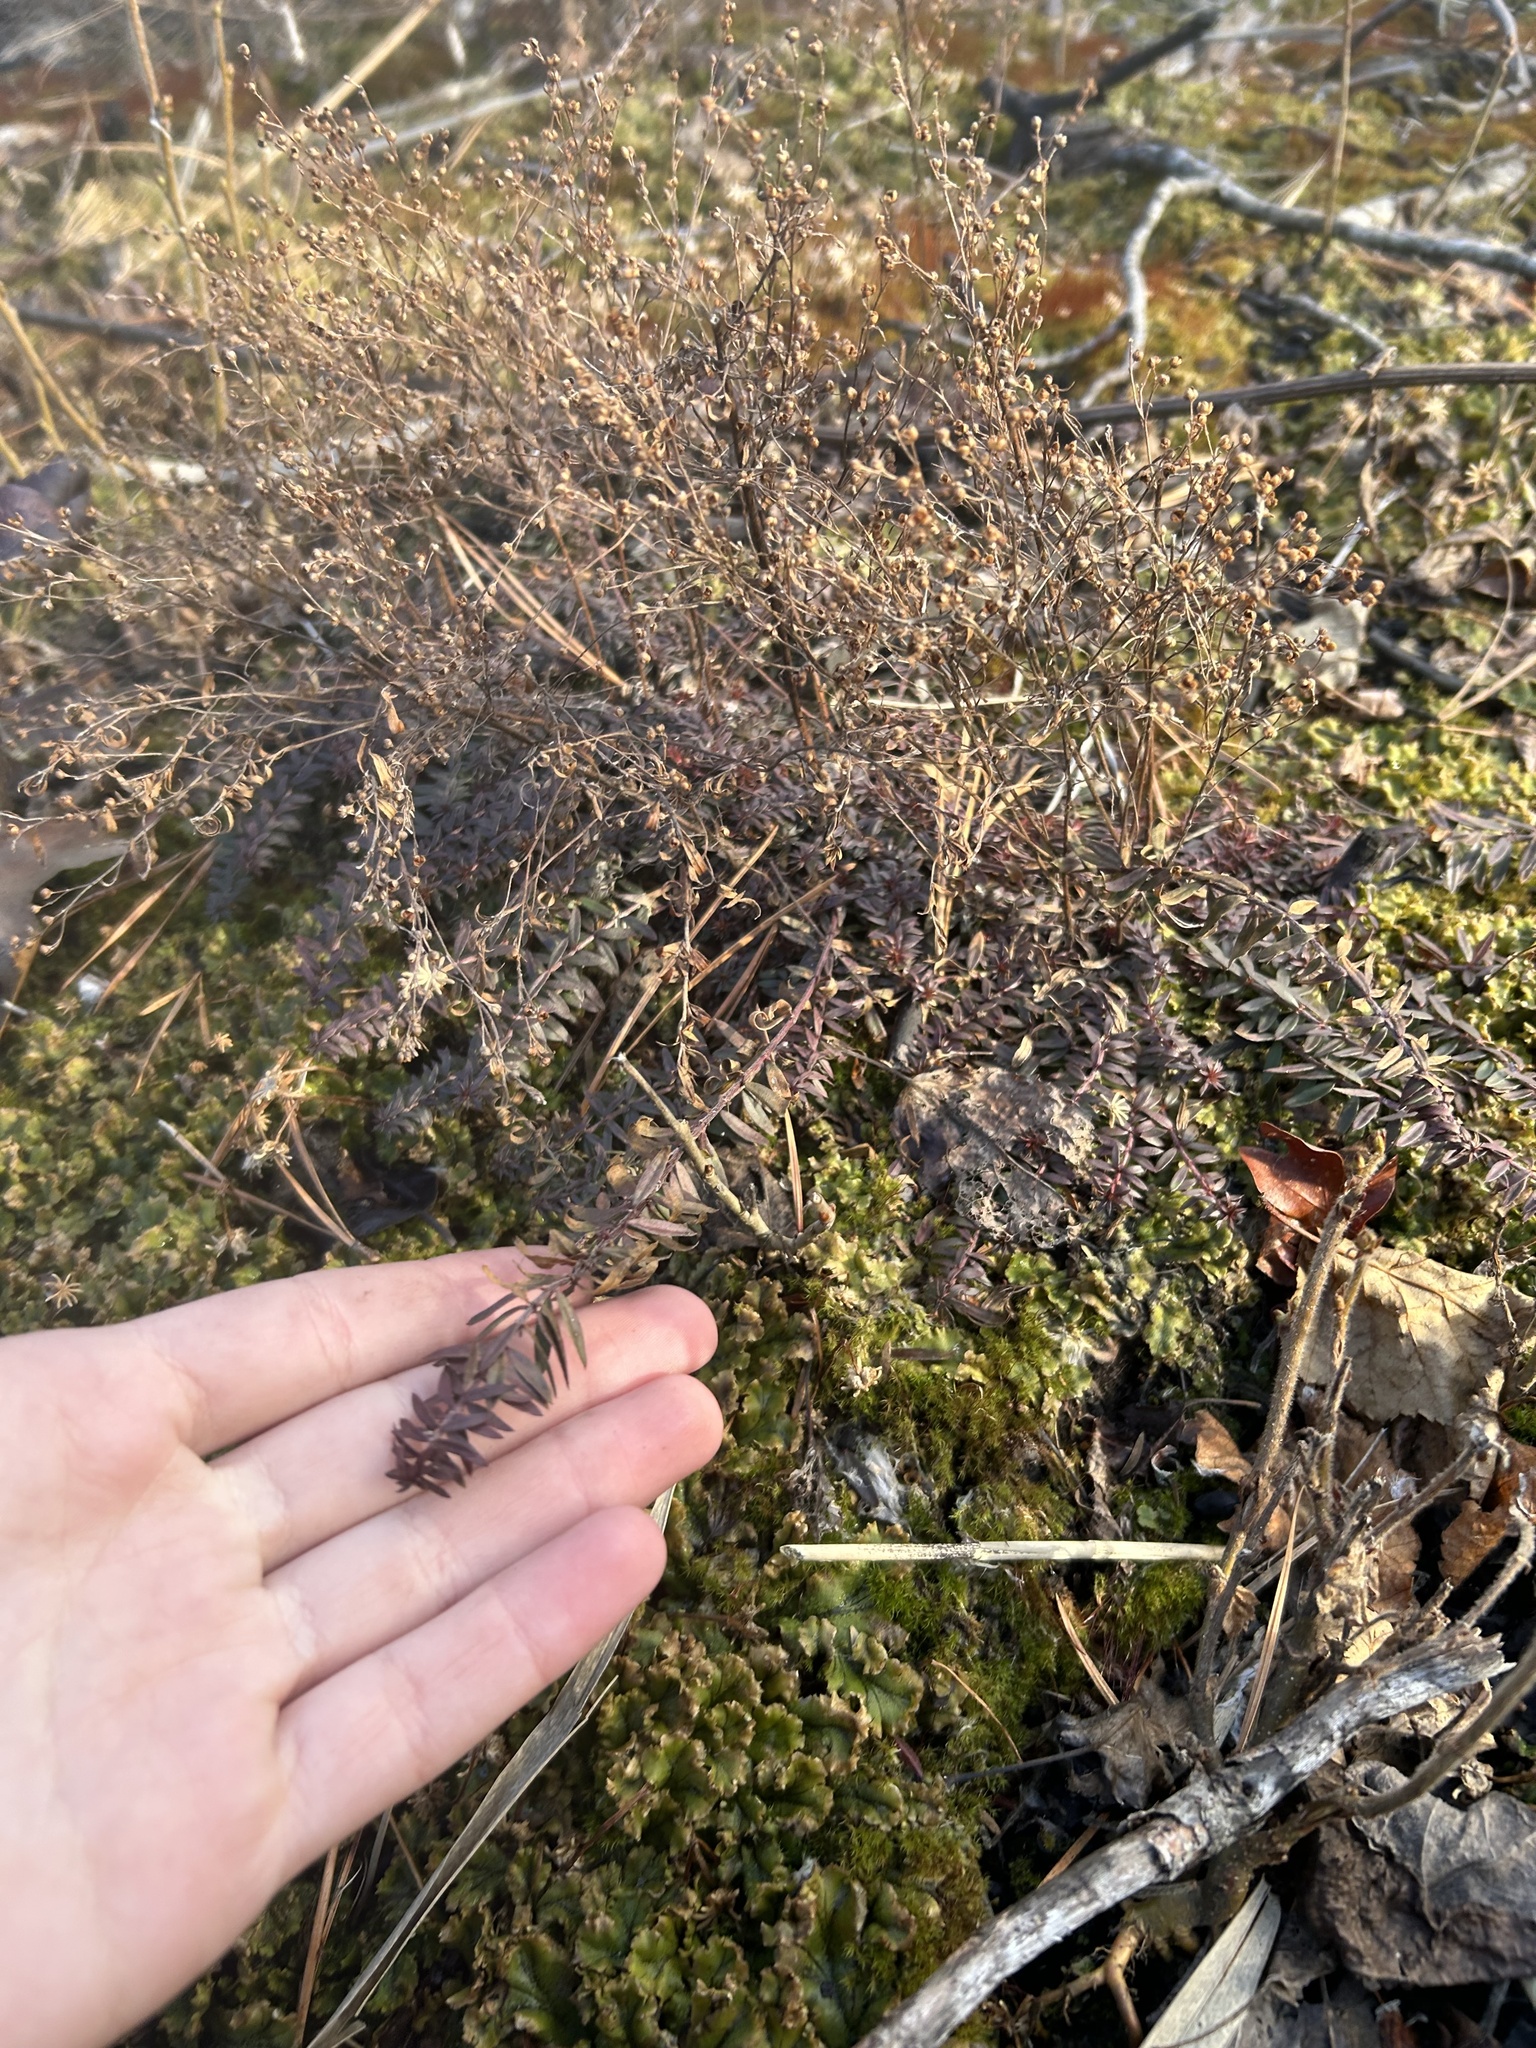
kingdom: Plantae
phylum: Tracheophyta
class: Magnoliopsida
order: Malvales
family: Cistaceae
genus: Lechea
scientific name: Lechea intermedia
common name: Intermediate pinweed
